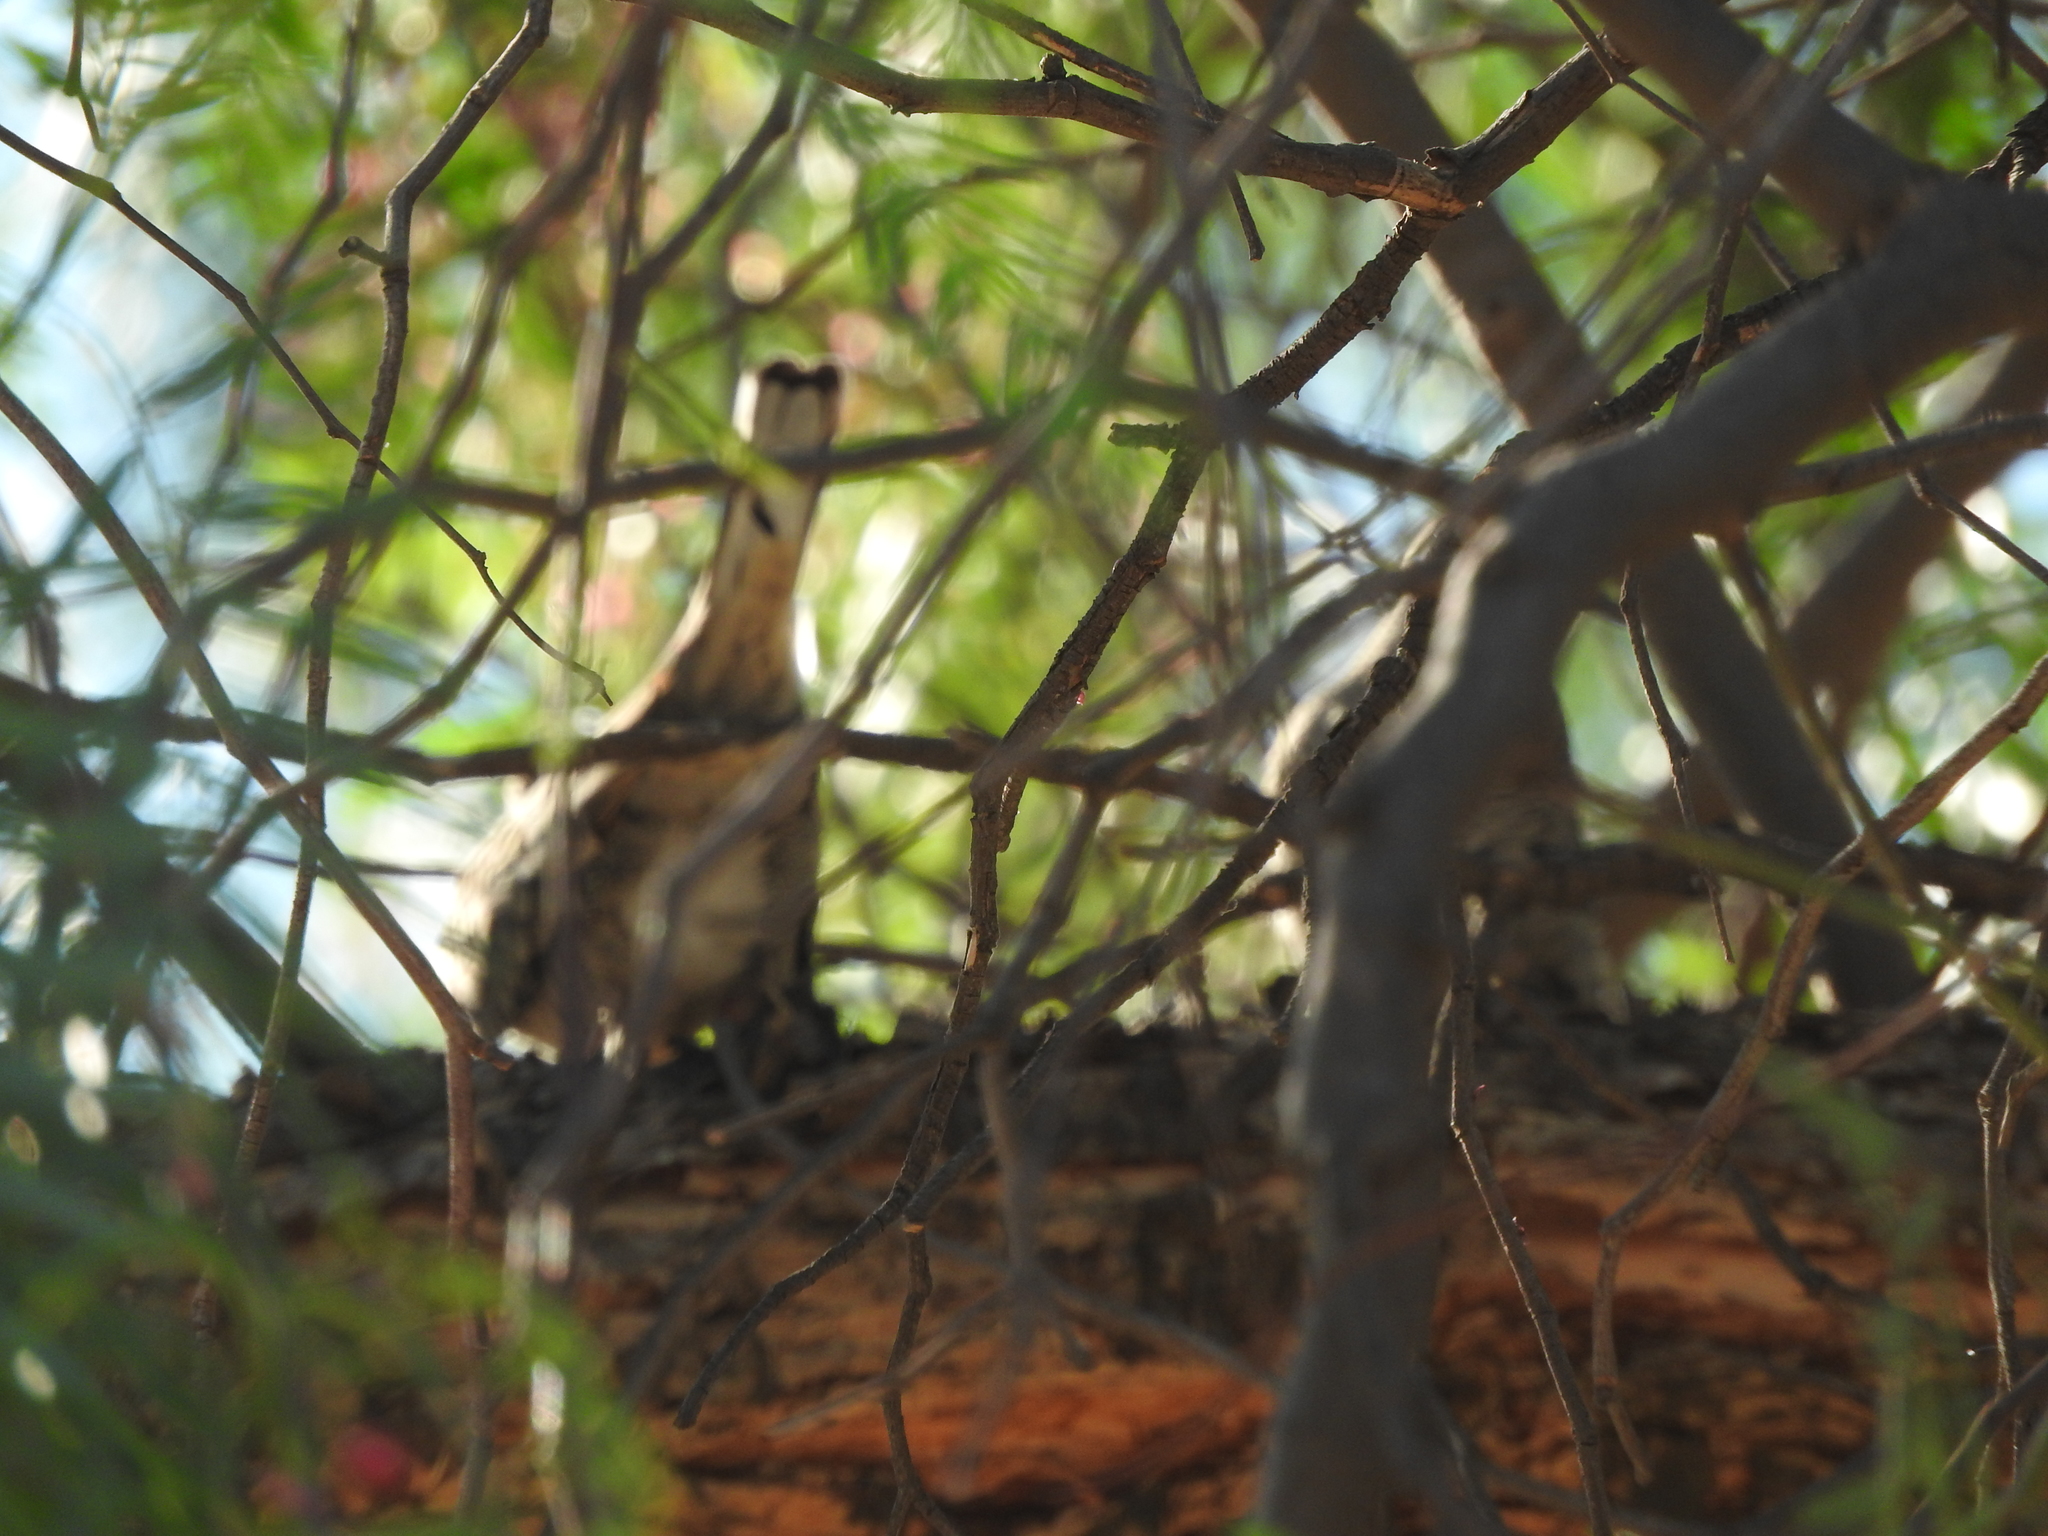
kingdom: Animalia
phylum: Chordata
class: Aves
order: Columbiformes
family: Columbidae
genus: Columbina
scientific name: Columbina inca
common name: Inca dove
